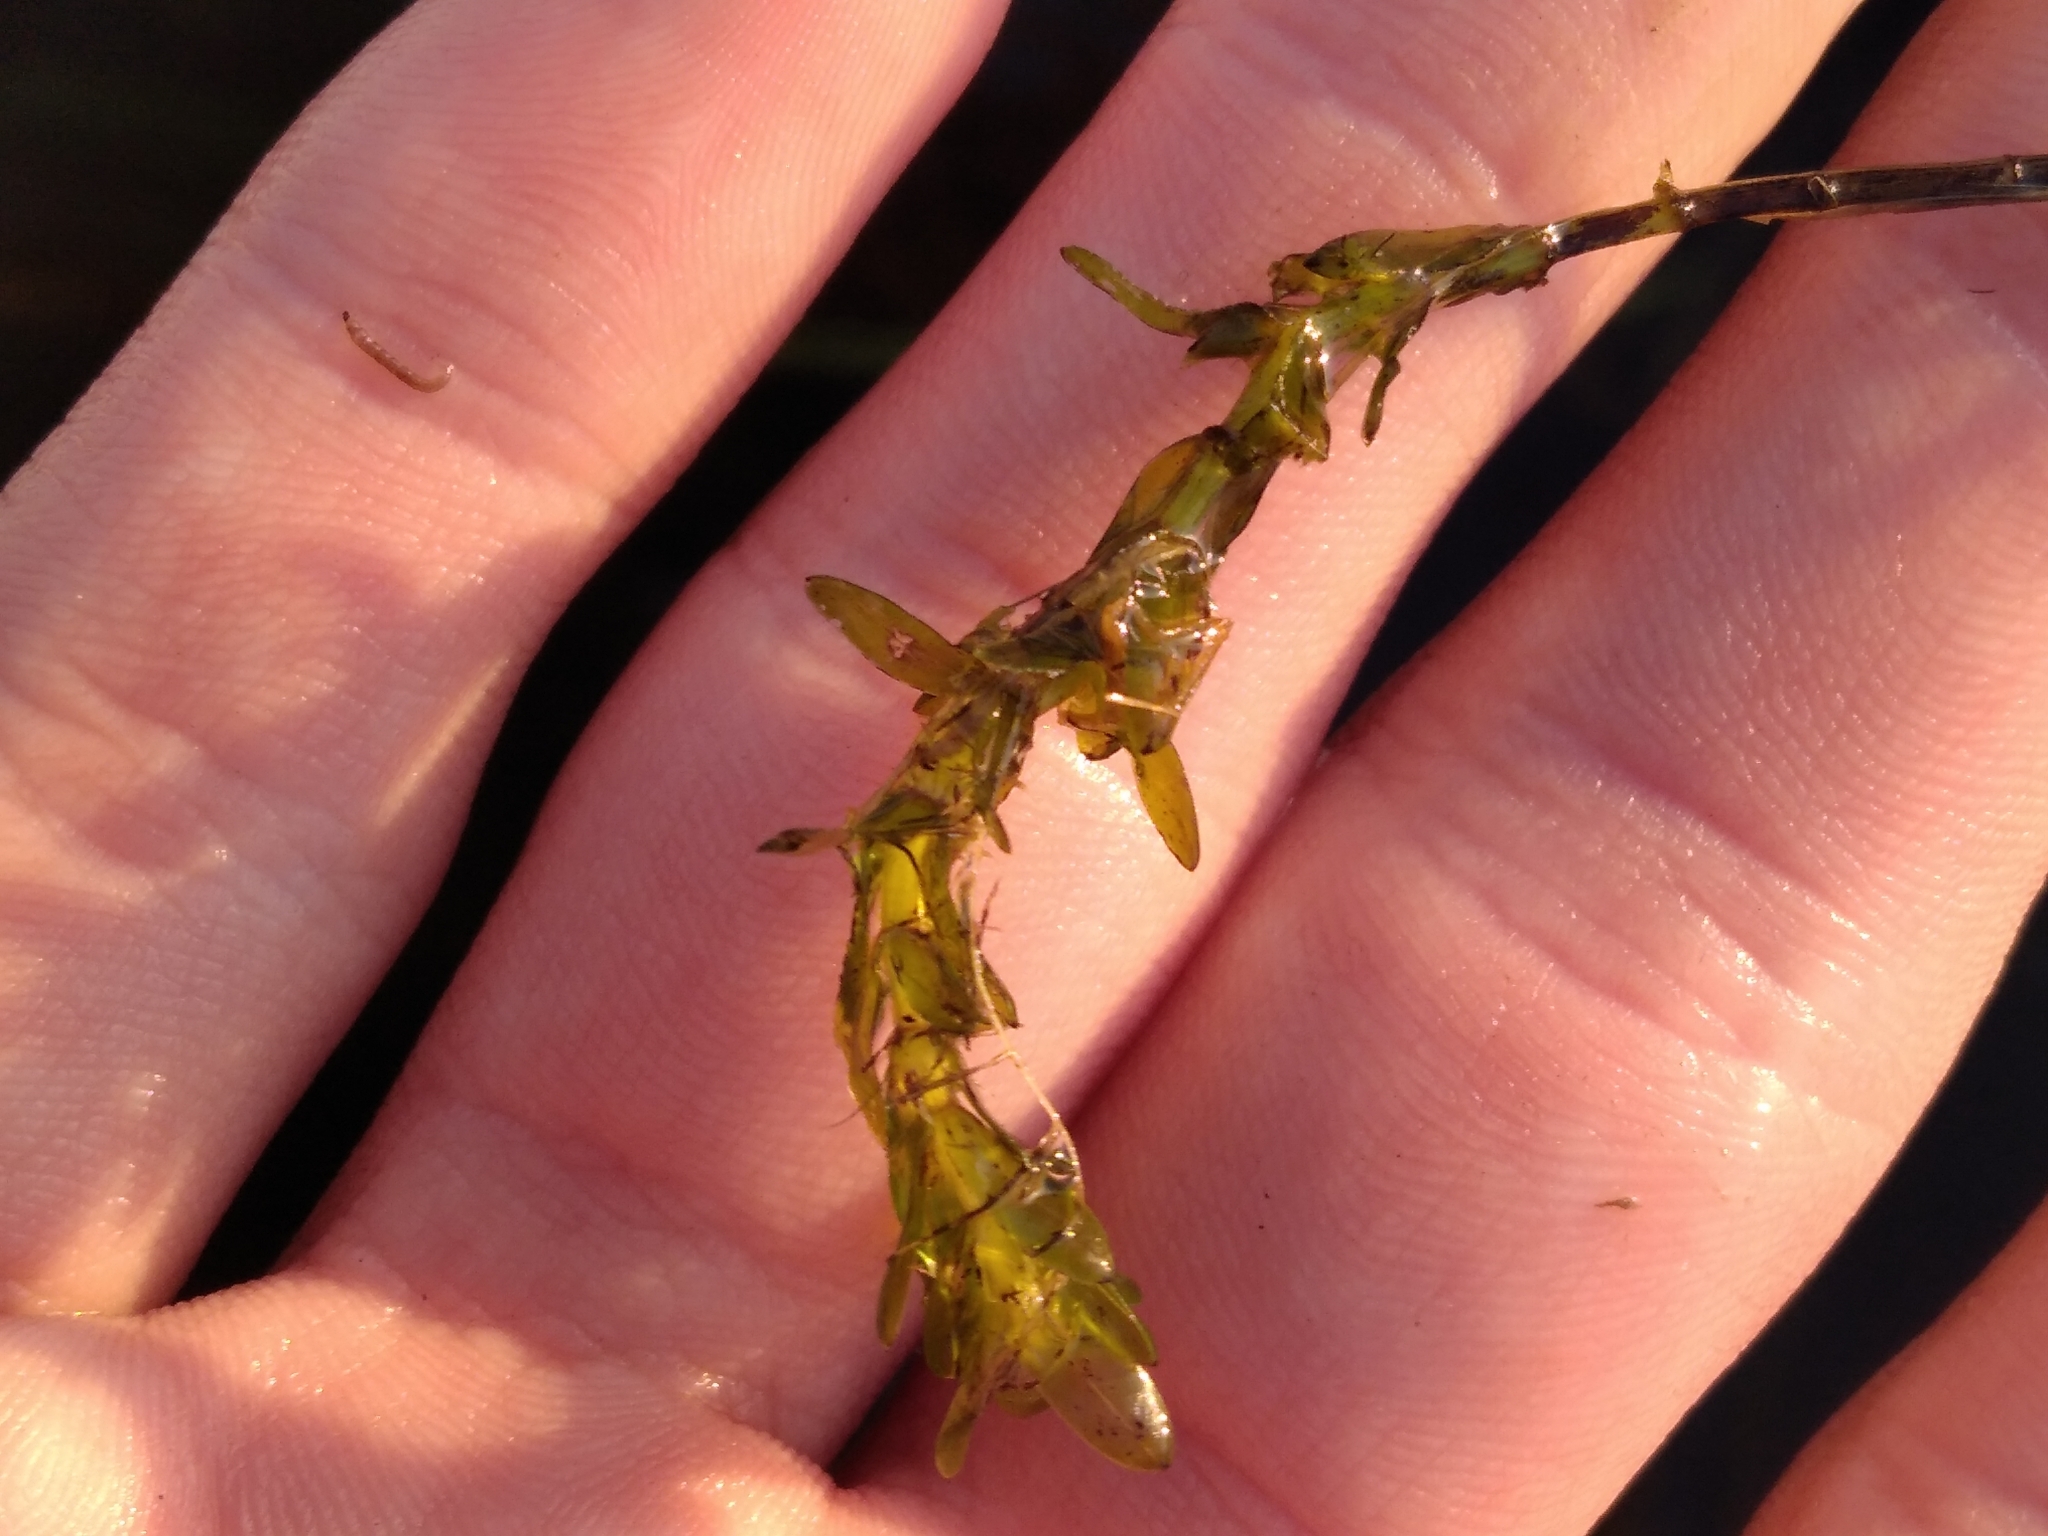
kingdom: Plantae
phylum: Tracheophyta
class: Liliopsida
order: Alismatales
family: Hydrocharitaceae
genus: Elodea
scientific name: Elodea canadensis
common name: Canadian waterweed
